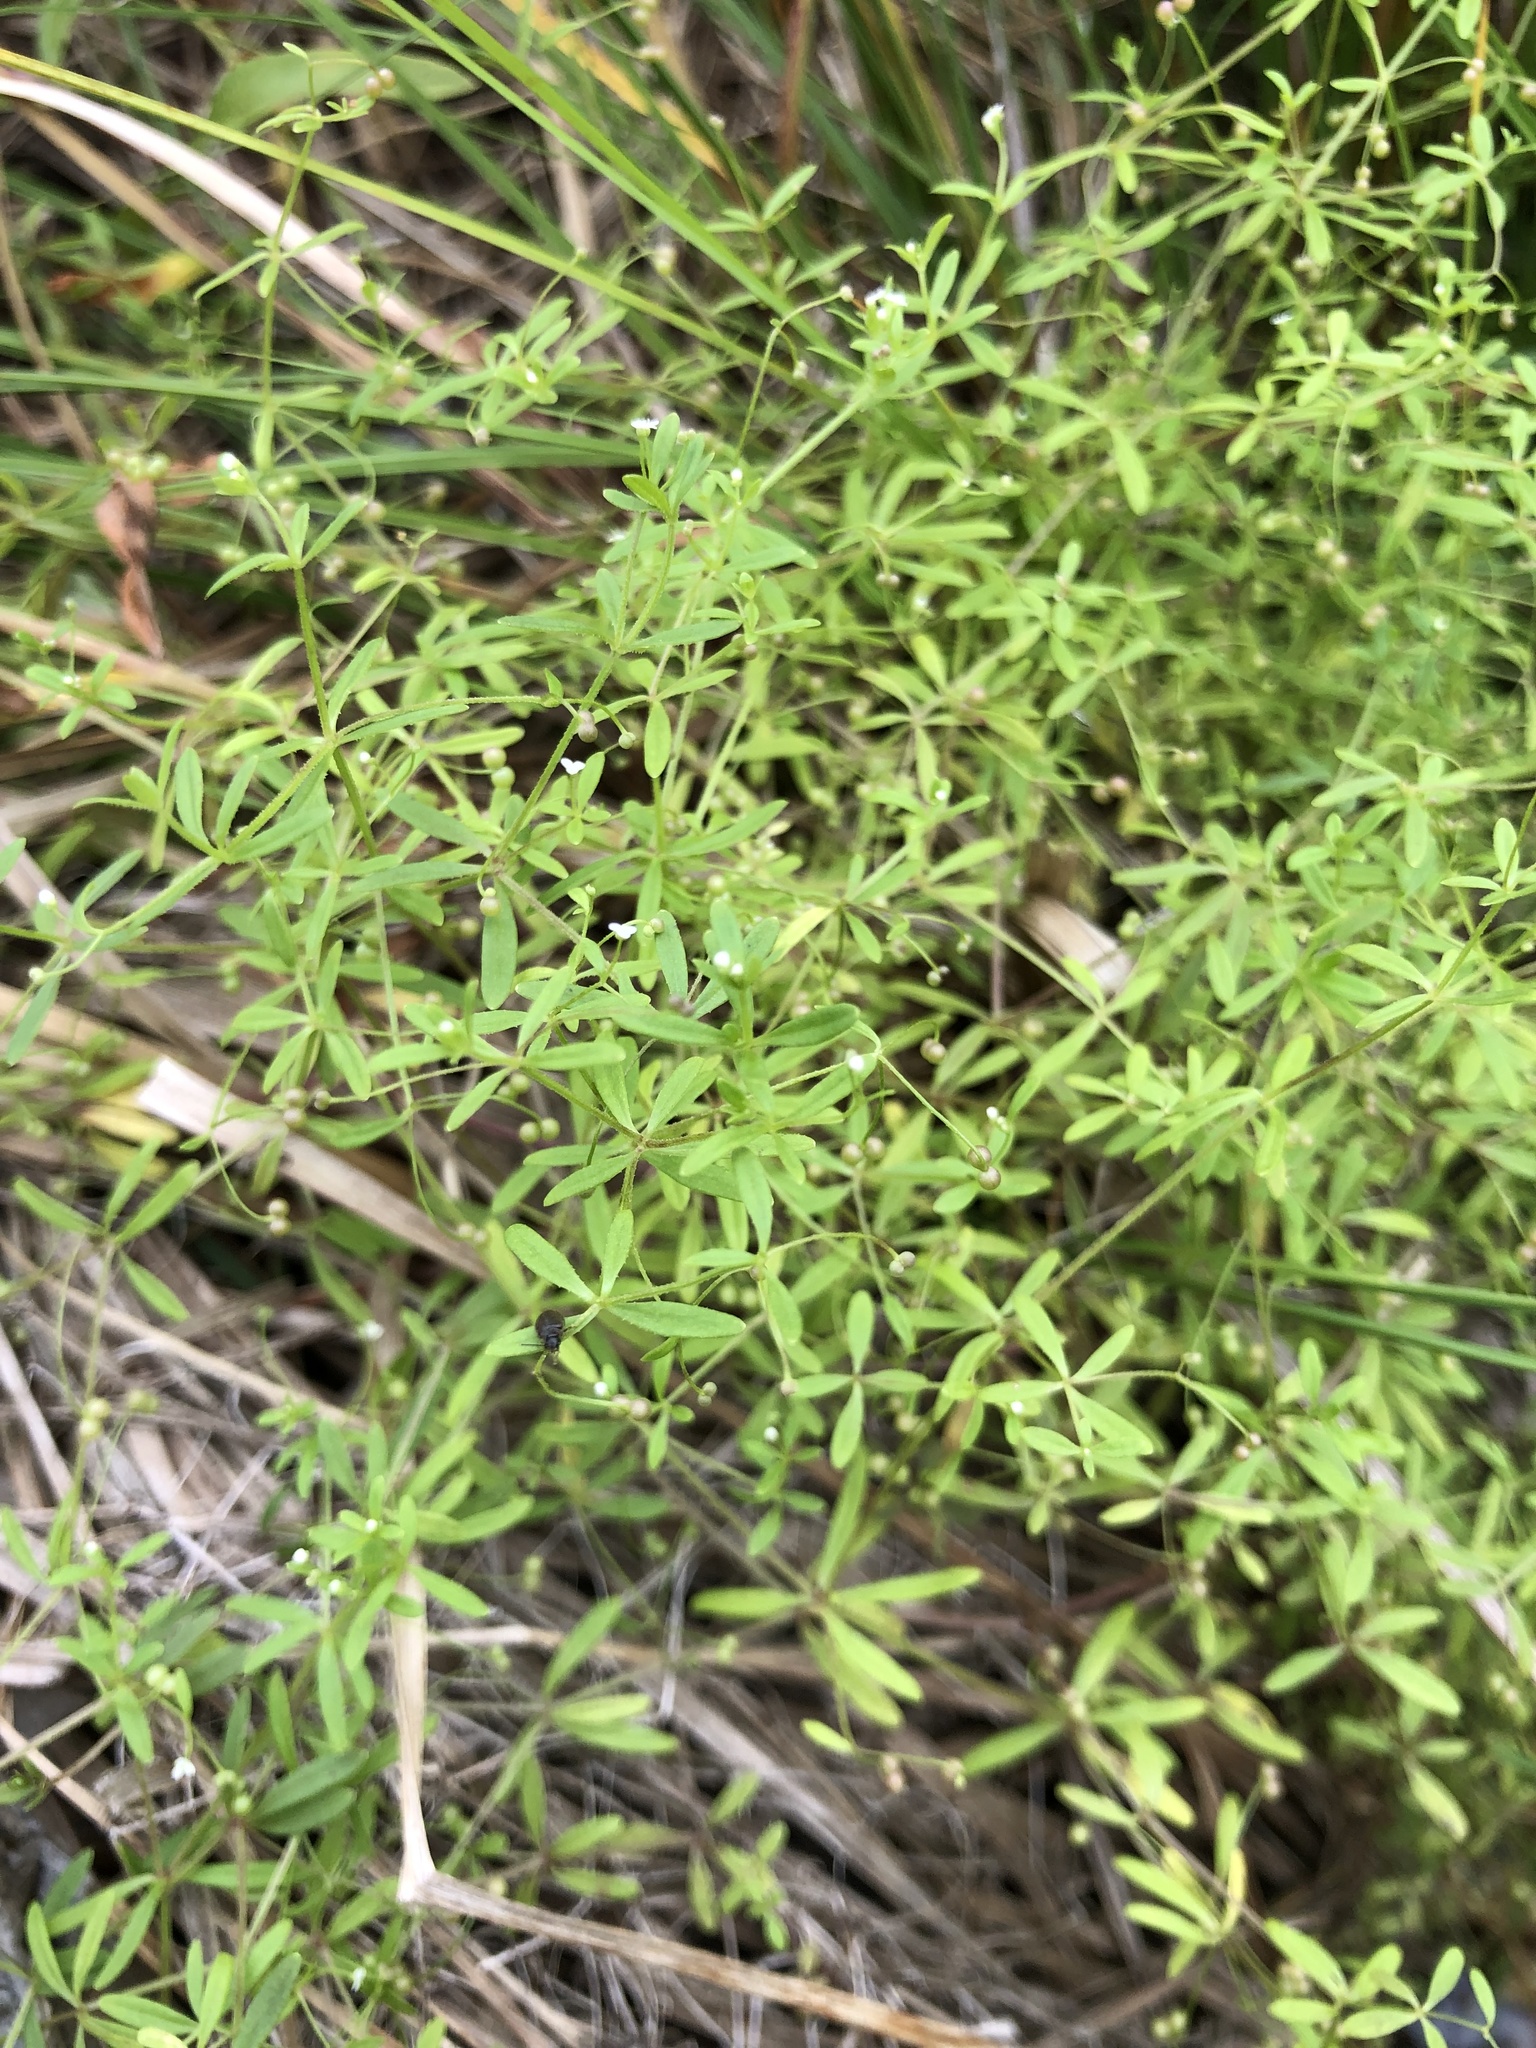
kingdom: Plantae
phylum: Tracheophyta
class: Magnoliopsida
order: Gentianales
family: Rubiaceae
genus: Galium
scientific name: Galium trifidum
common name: Small bedstraw
